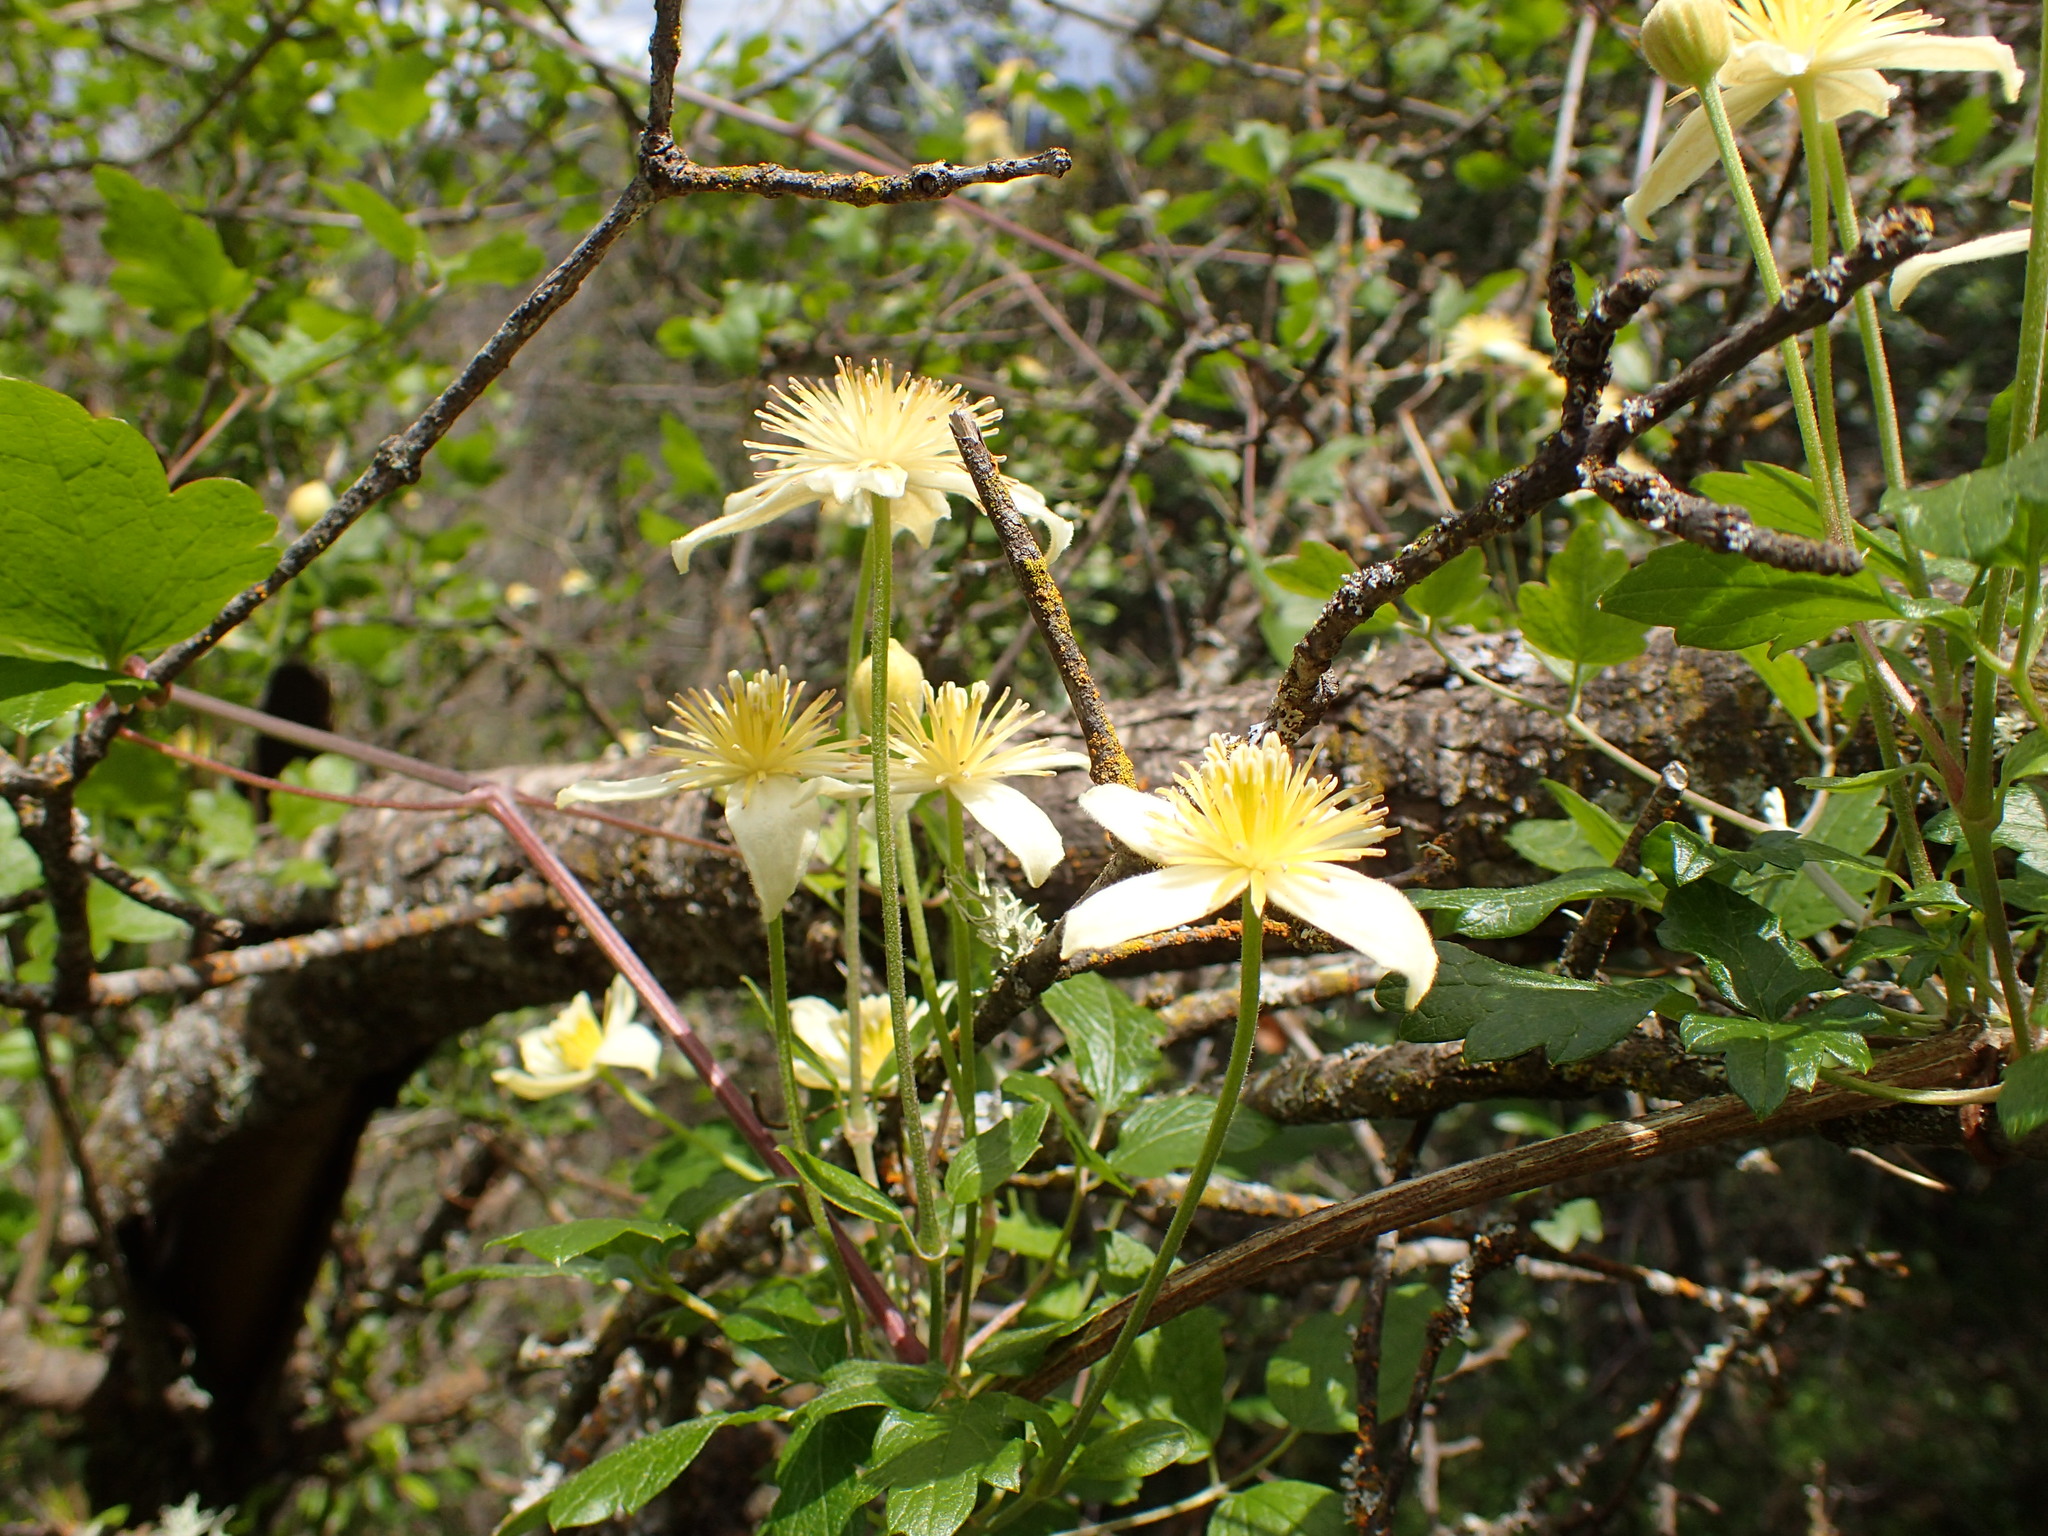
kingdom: Plantae
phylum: Tracheophyta
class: Magnoliopsida
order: Ranunculales
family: Ranunculaceae
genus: Clematis
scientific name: Clematis lasiantha
